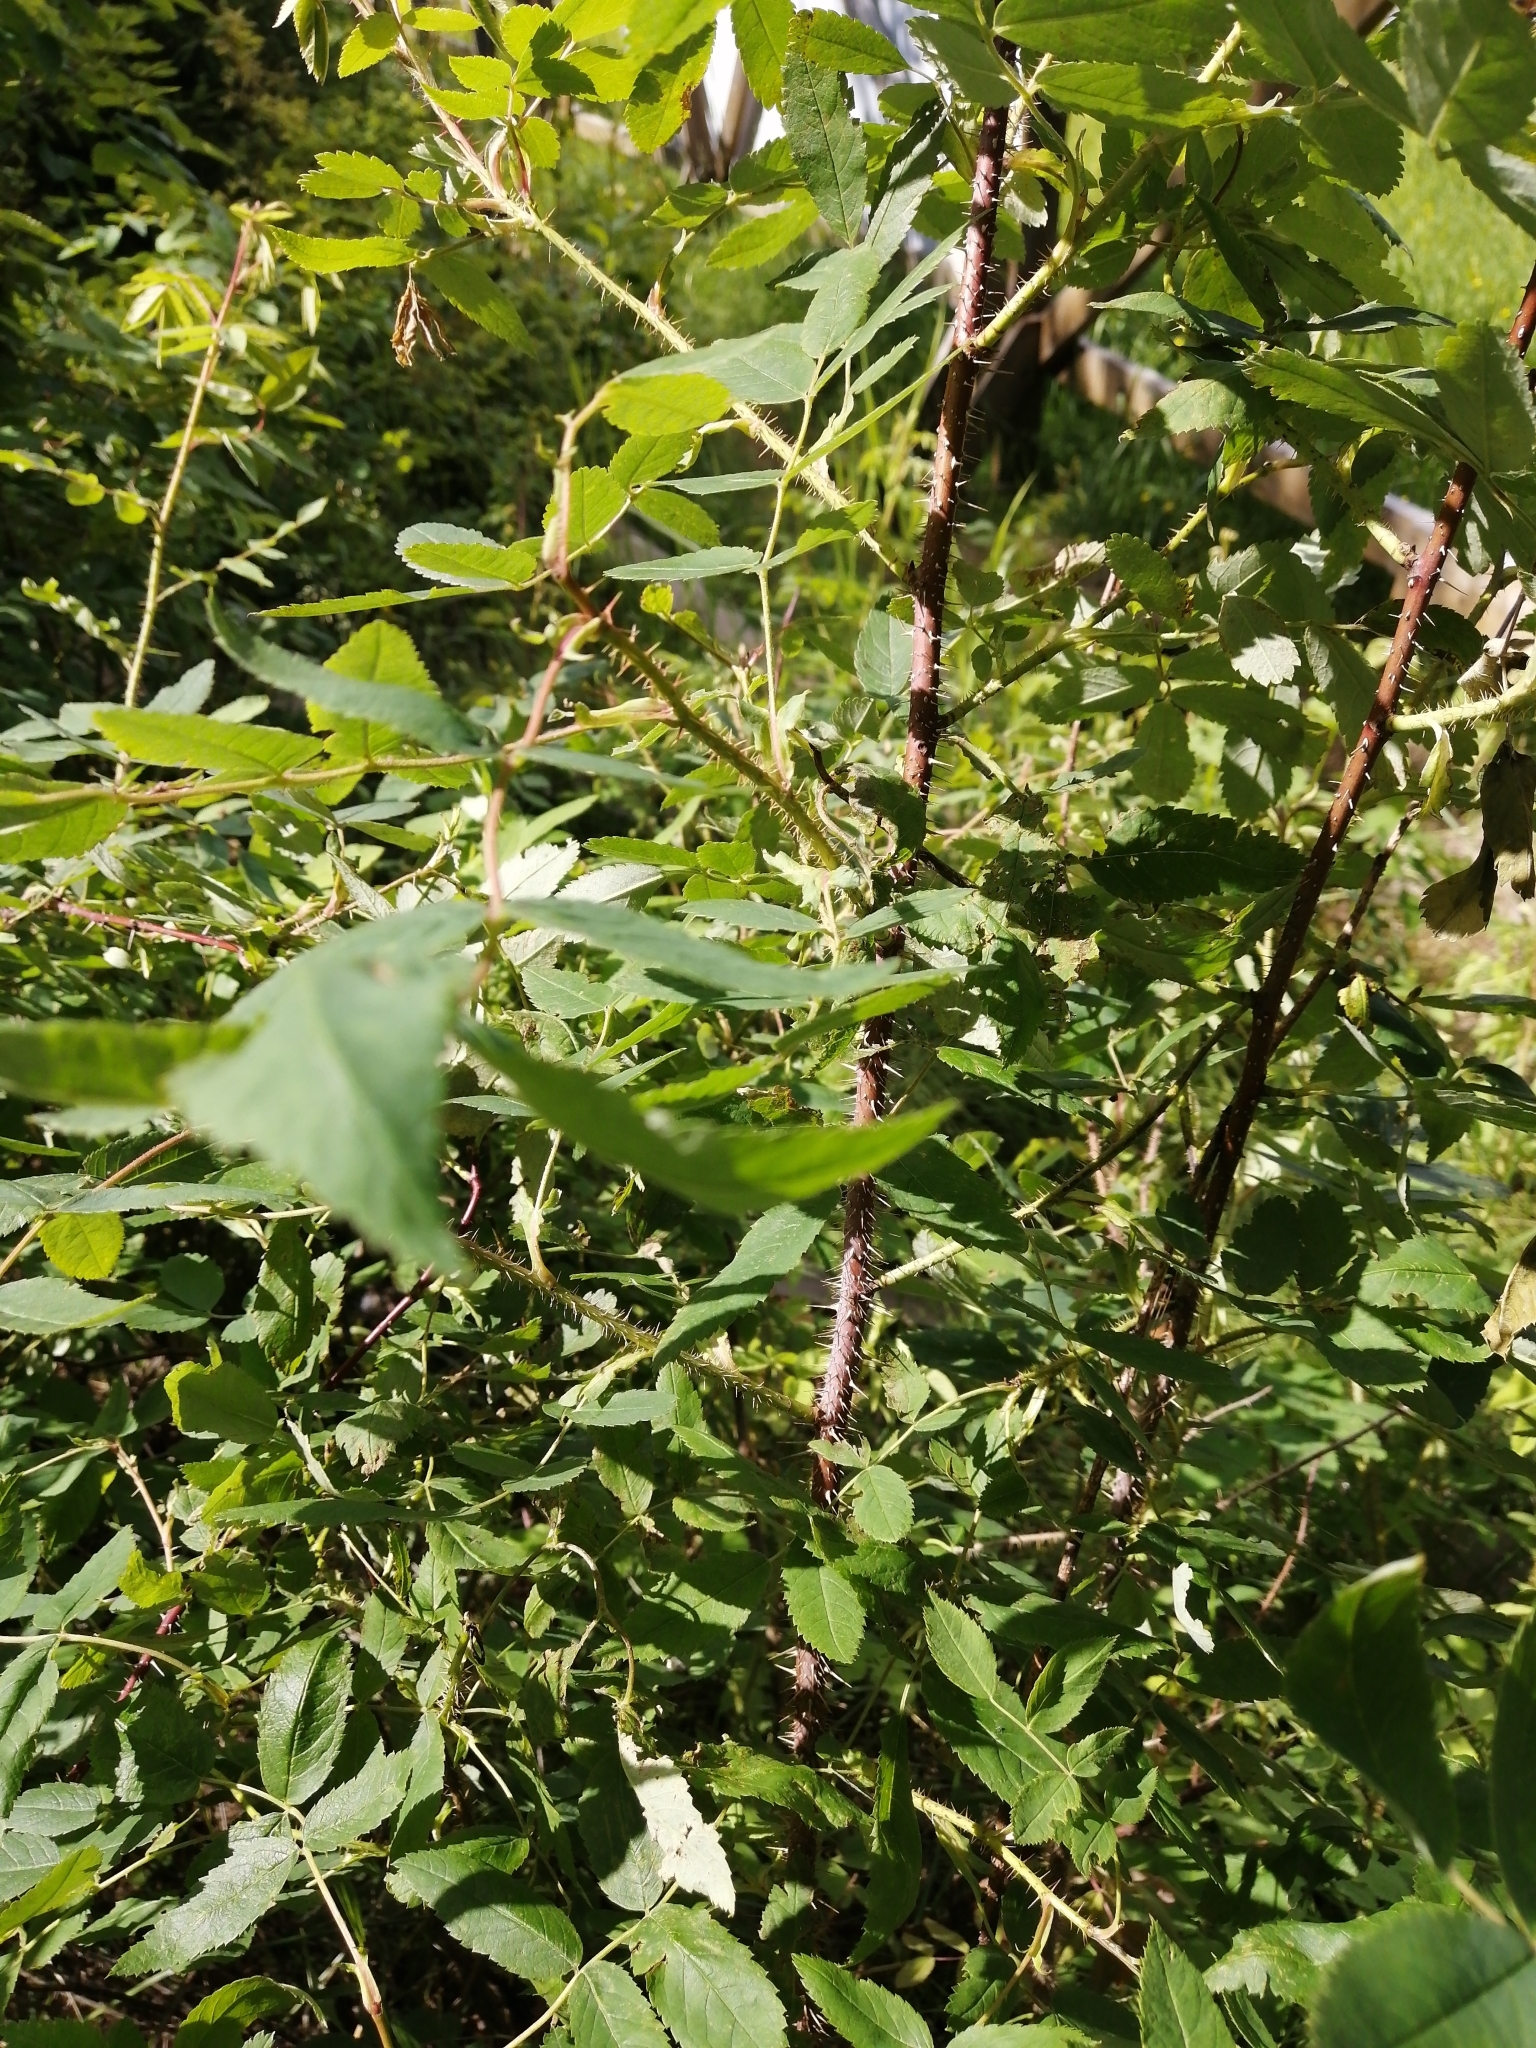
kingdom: Plantae
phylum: Tracheophyta
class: Magnoliopsida
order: Rosales
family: Rosaceae
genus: Rosa
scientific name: Rosa majalis
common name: Cinnamon rose
